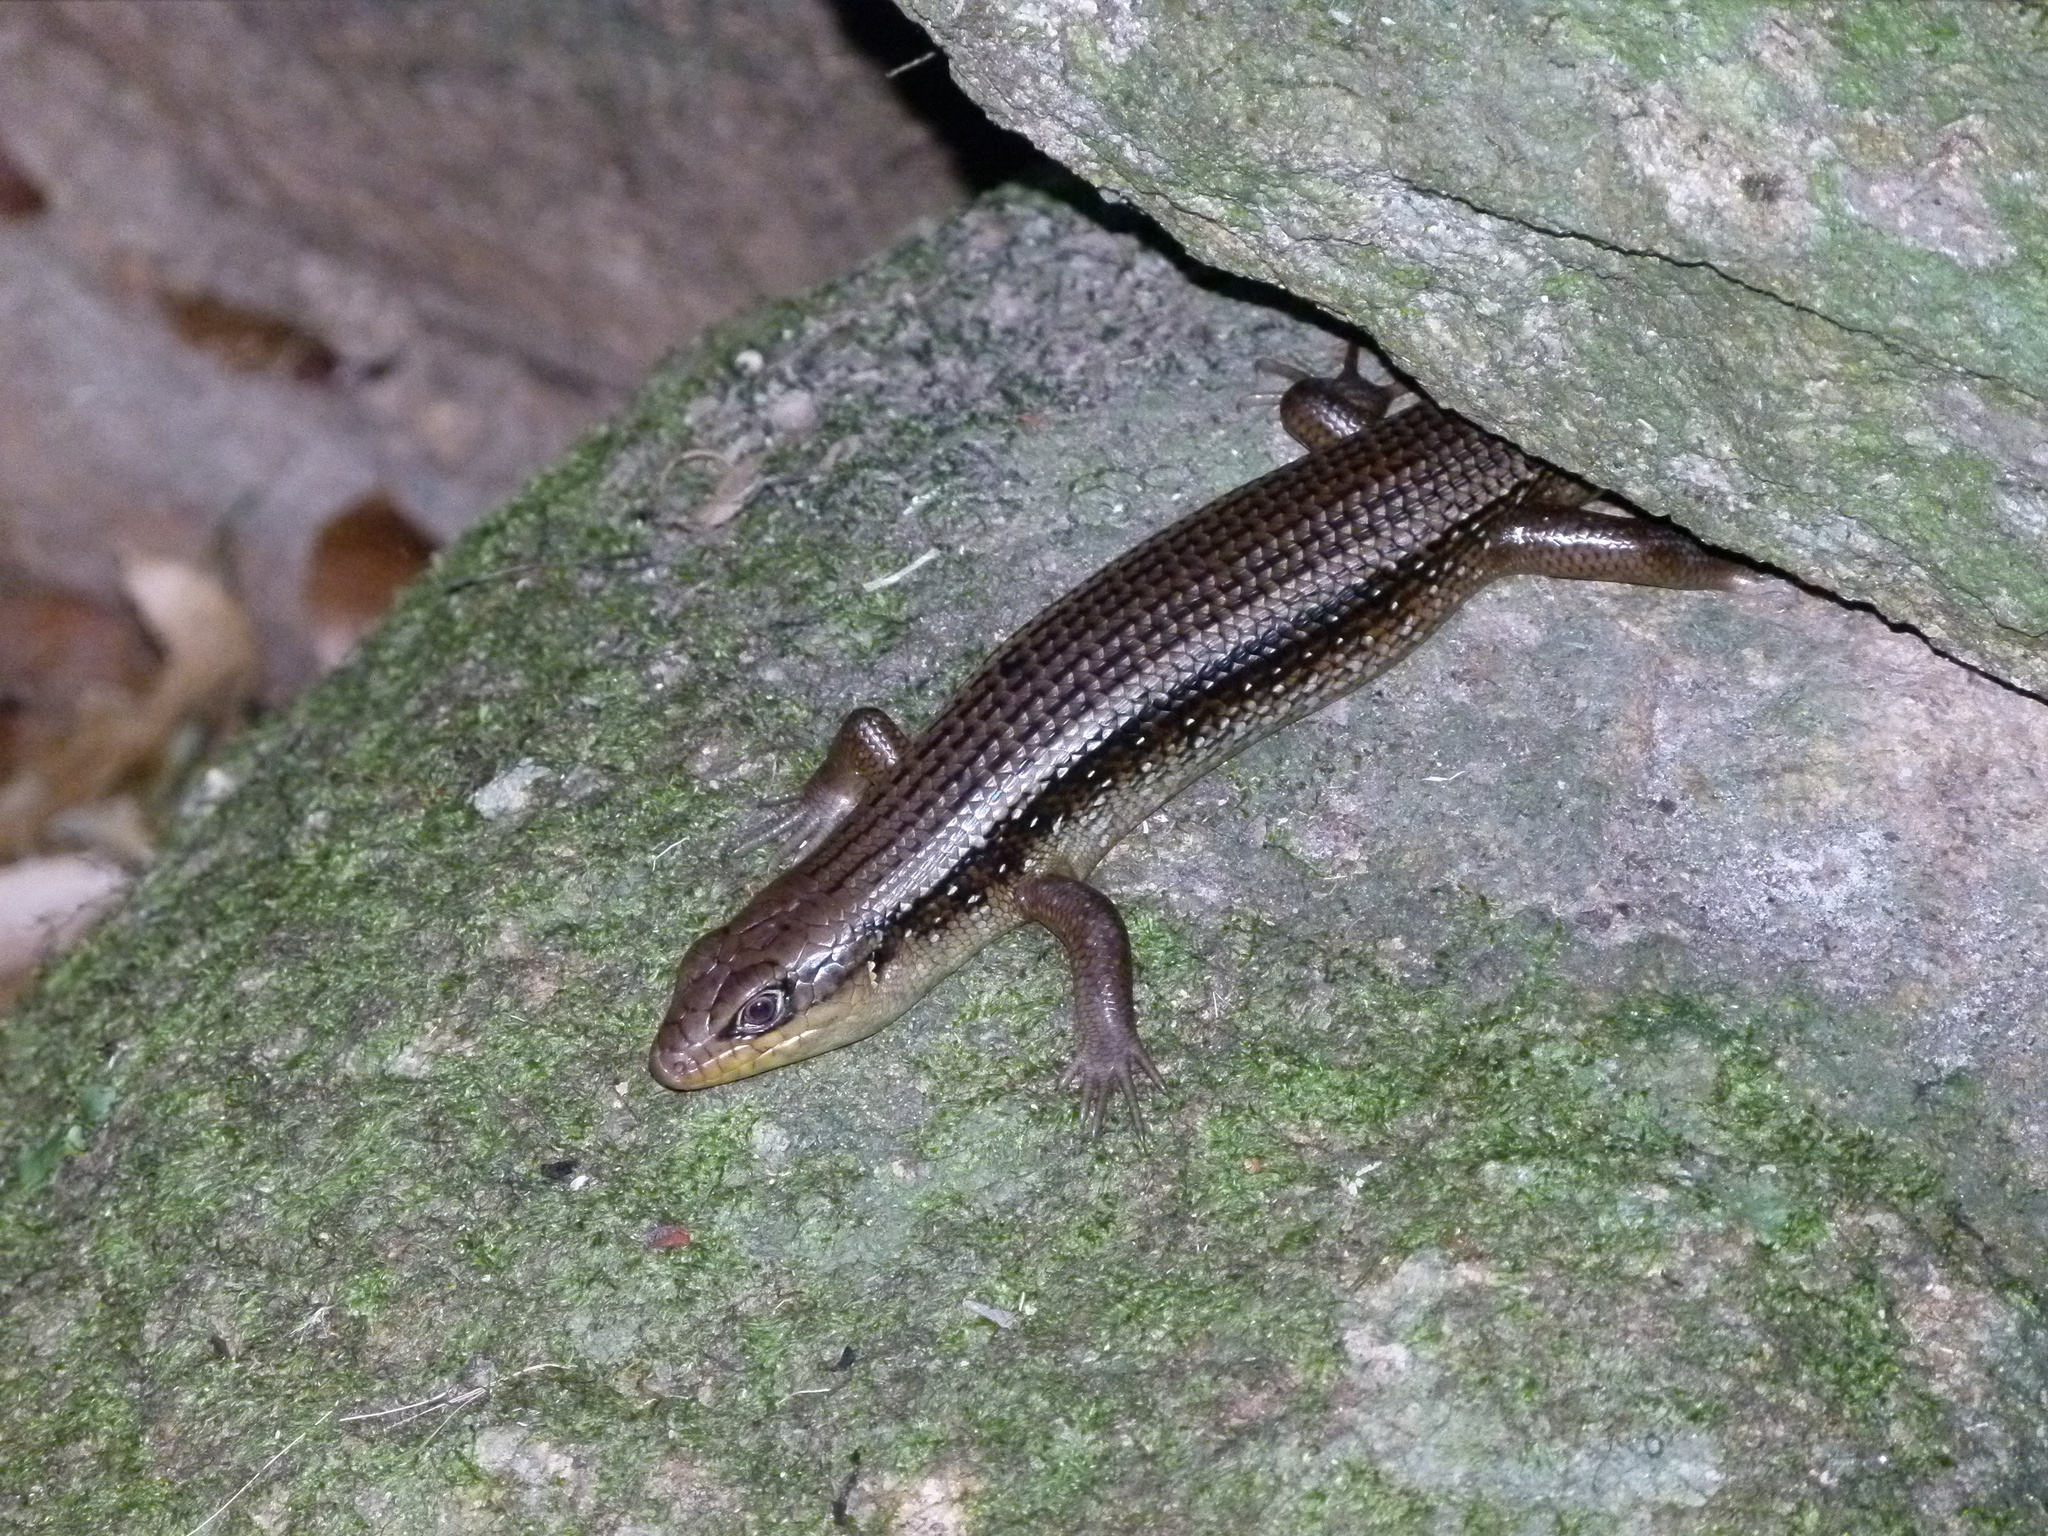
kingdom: Animalia
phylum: Chordata
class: Squamata
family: Scincidae
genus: Bellatorias
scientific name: Bellatorias frerei
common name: Major skink
